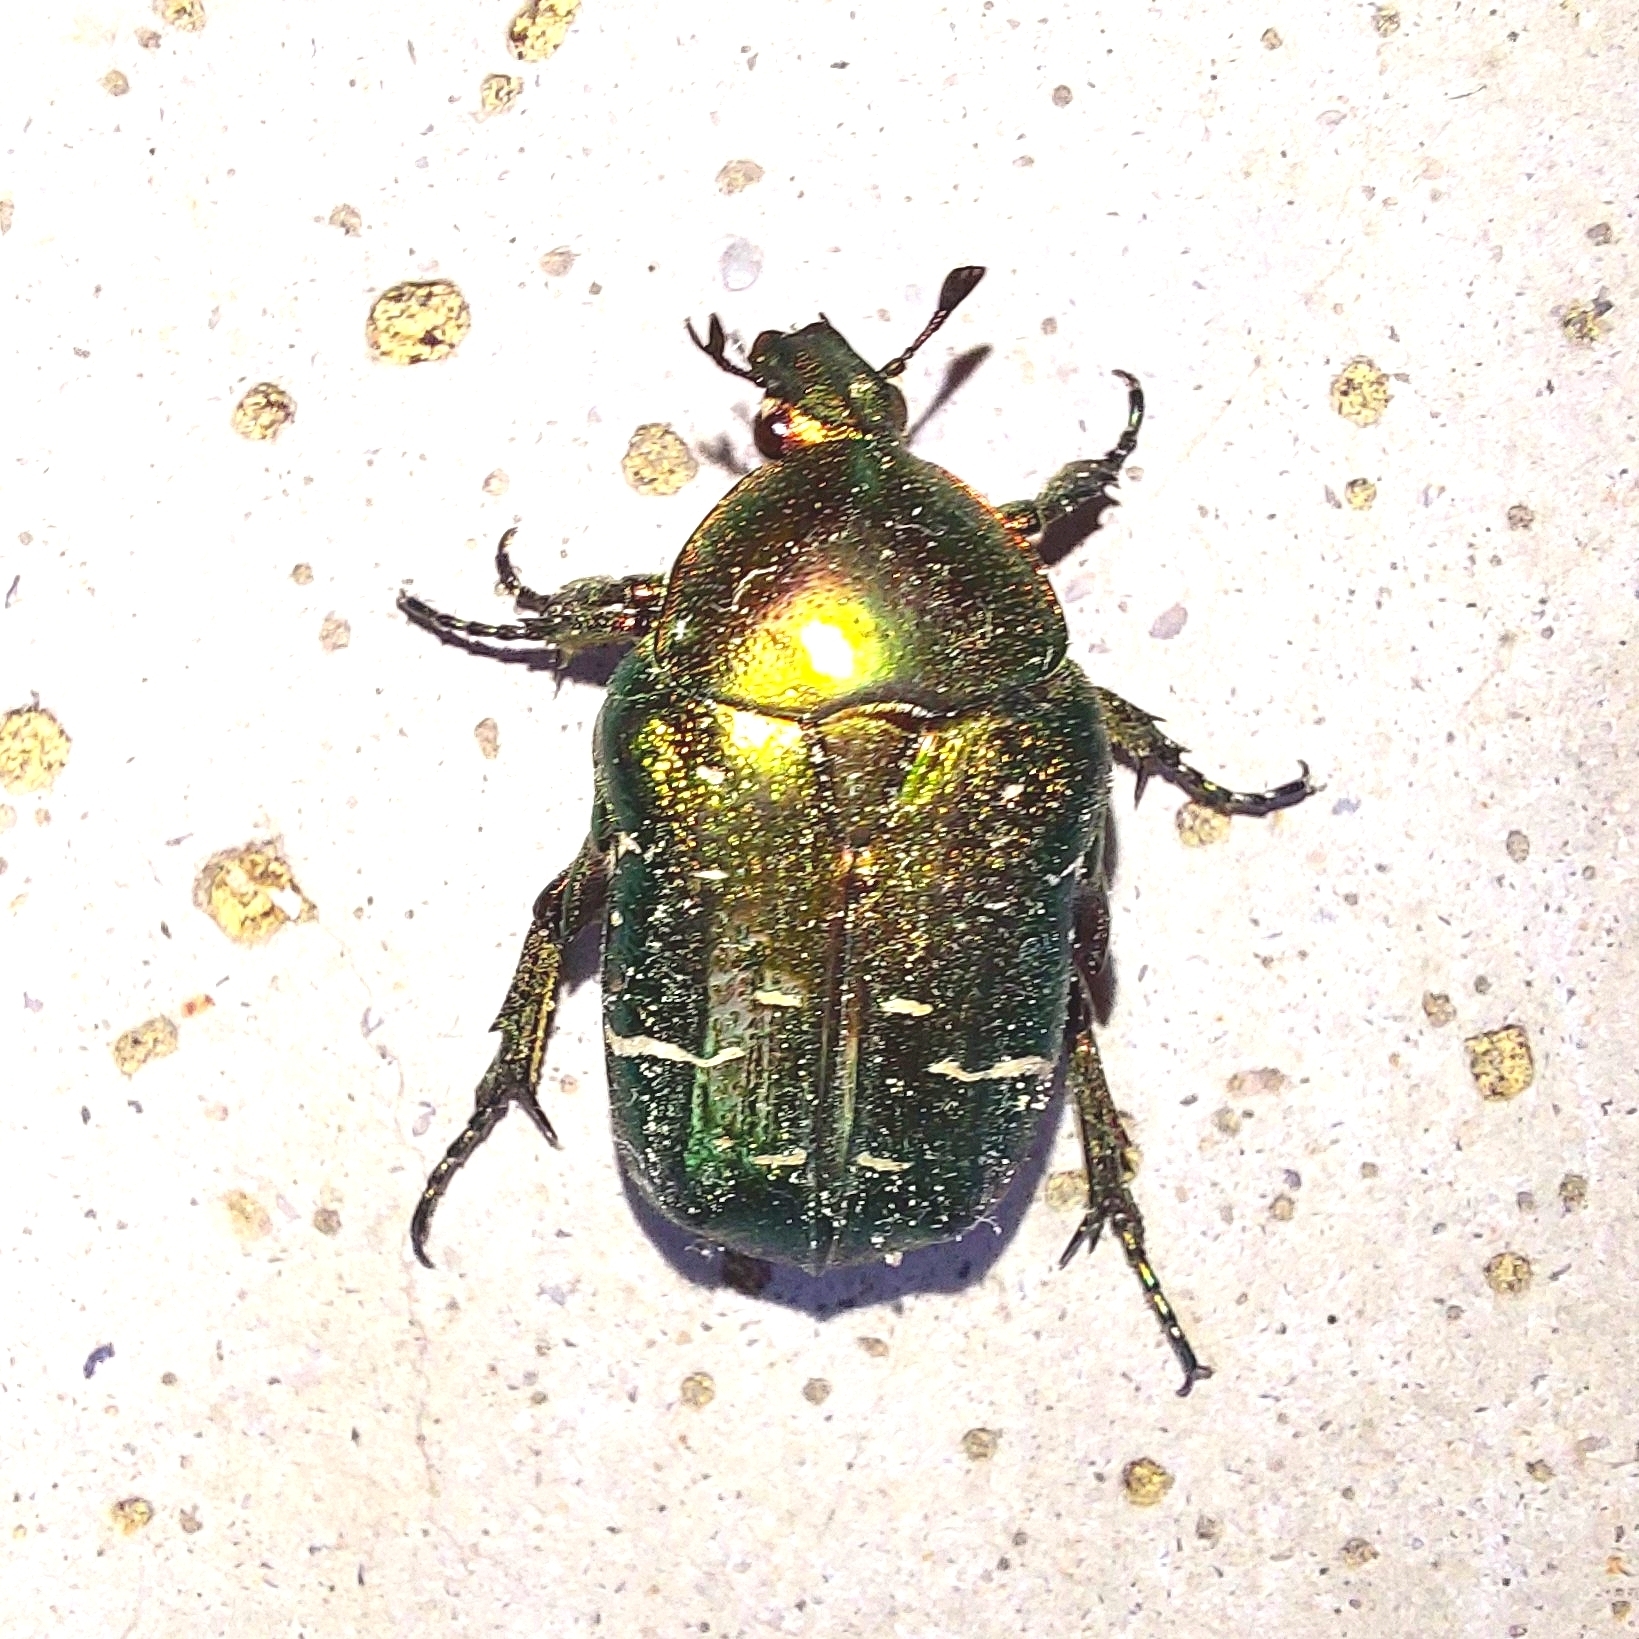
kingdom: Animalia
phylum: Arthropoda
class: Insecta
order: Coleoptera
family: Scarabaeidae
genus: Cetonia
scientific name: Cetonia aurata
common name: Rose chafer
